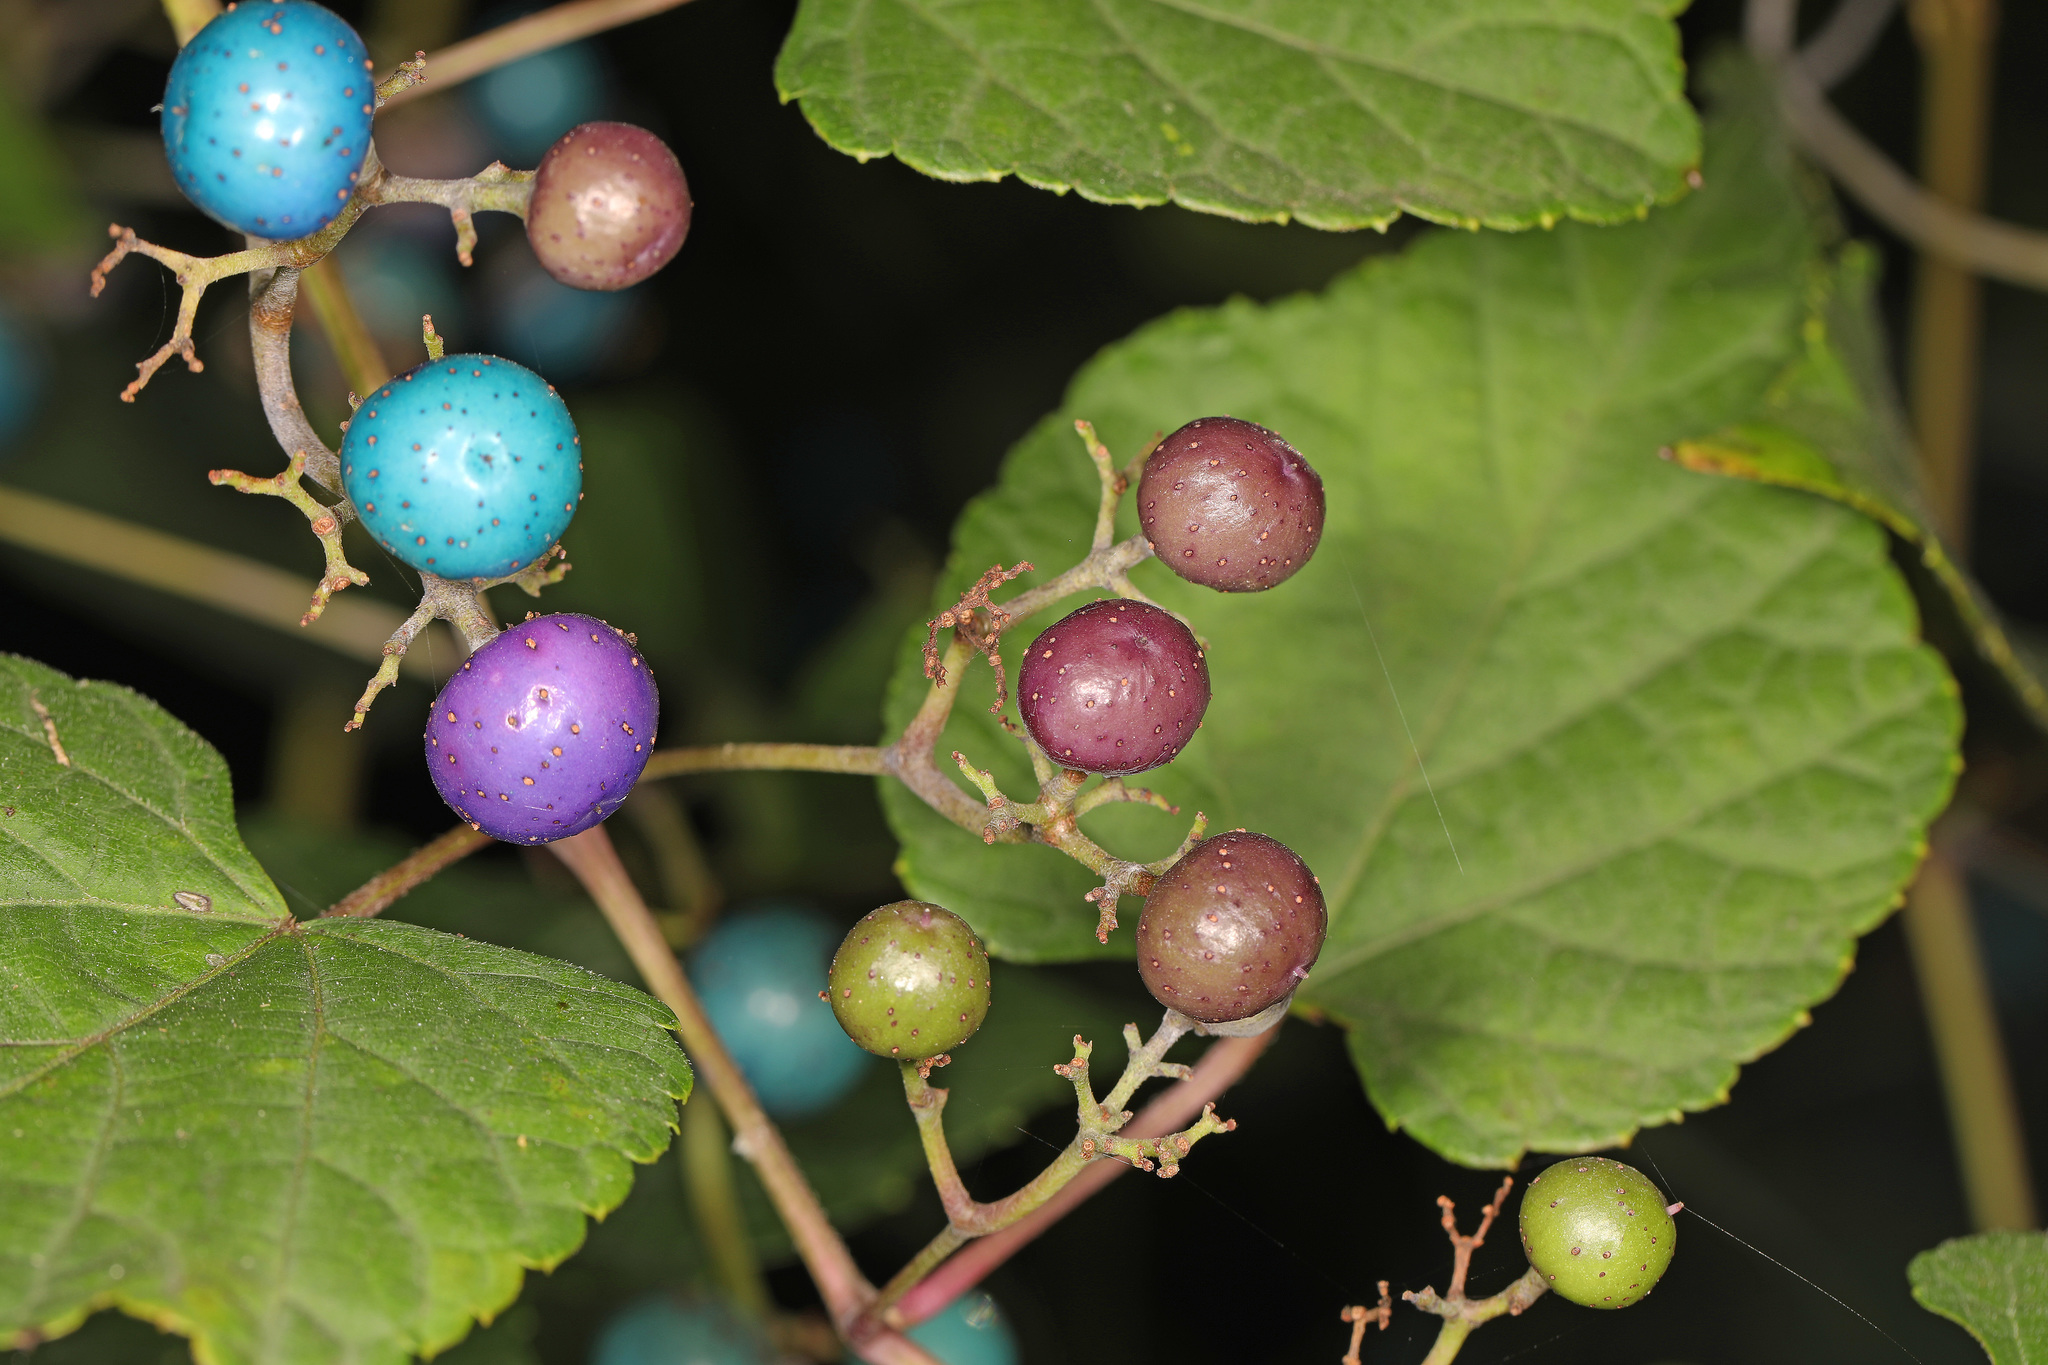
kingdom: Plantae
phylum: Tracheophyta
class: Magnoliopsida
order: Vitales
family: Vitaceae
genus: Ampelopsis
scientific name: Ampelopsis glandulosa
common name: Amur peppervine
